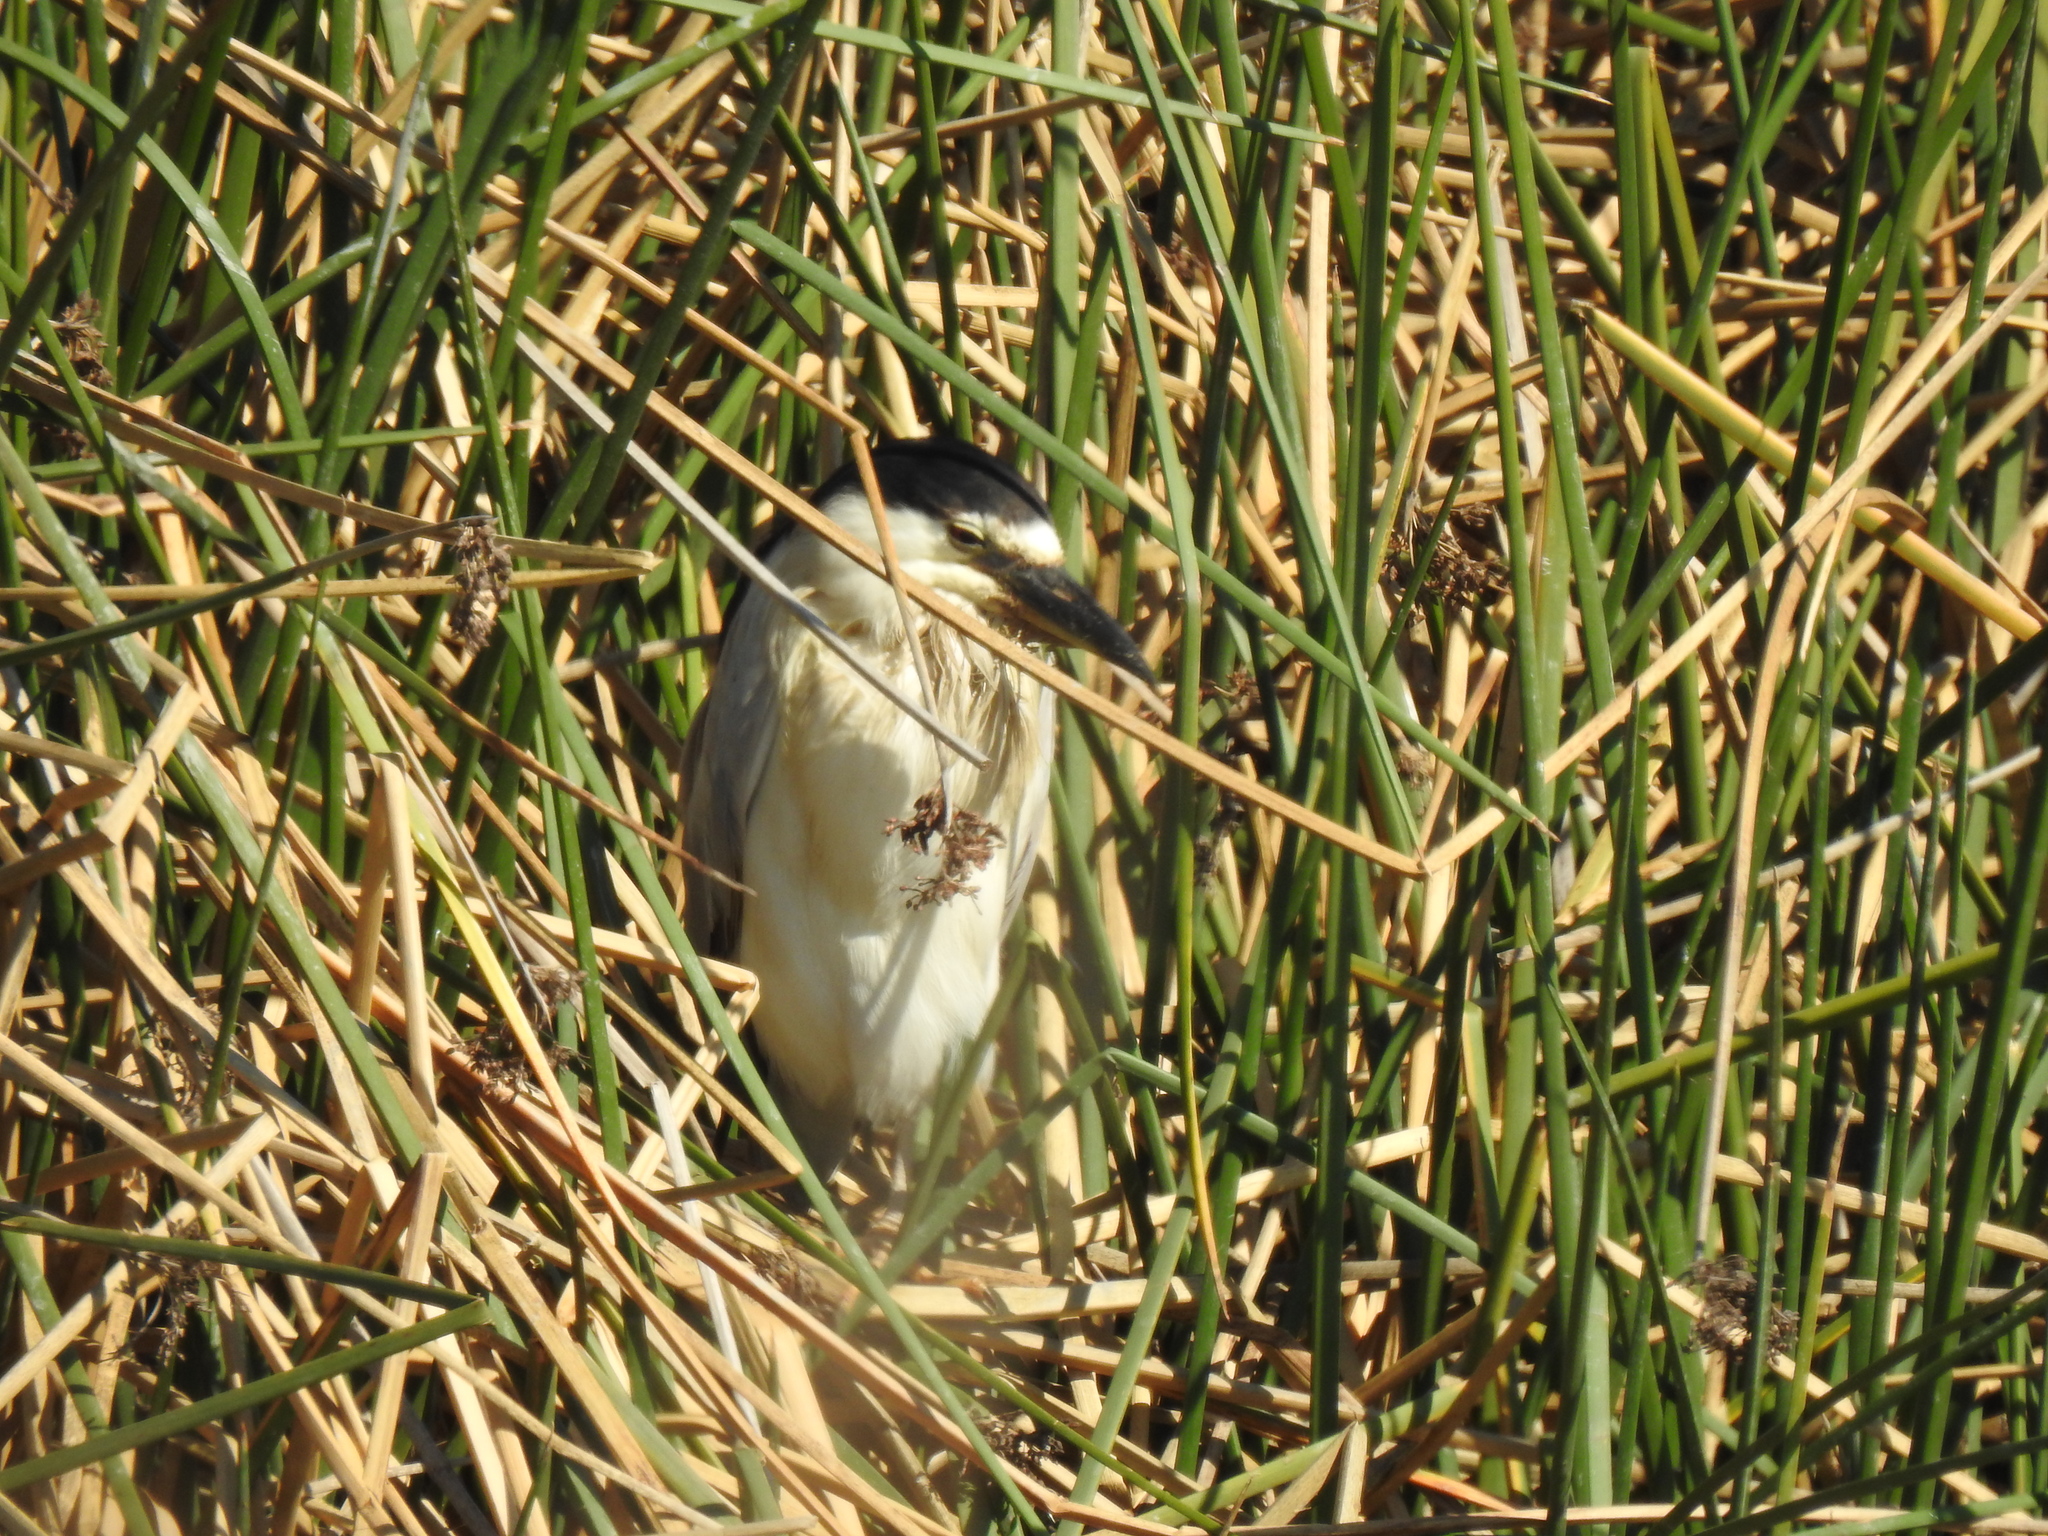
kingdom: Animalia
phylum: Chordata
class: Aves
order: Pelecaniformes
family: Ardeidae
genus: Nycticorax
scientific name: Nycticorax nycticorax
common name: Black-crowned night heron
